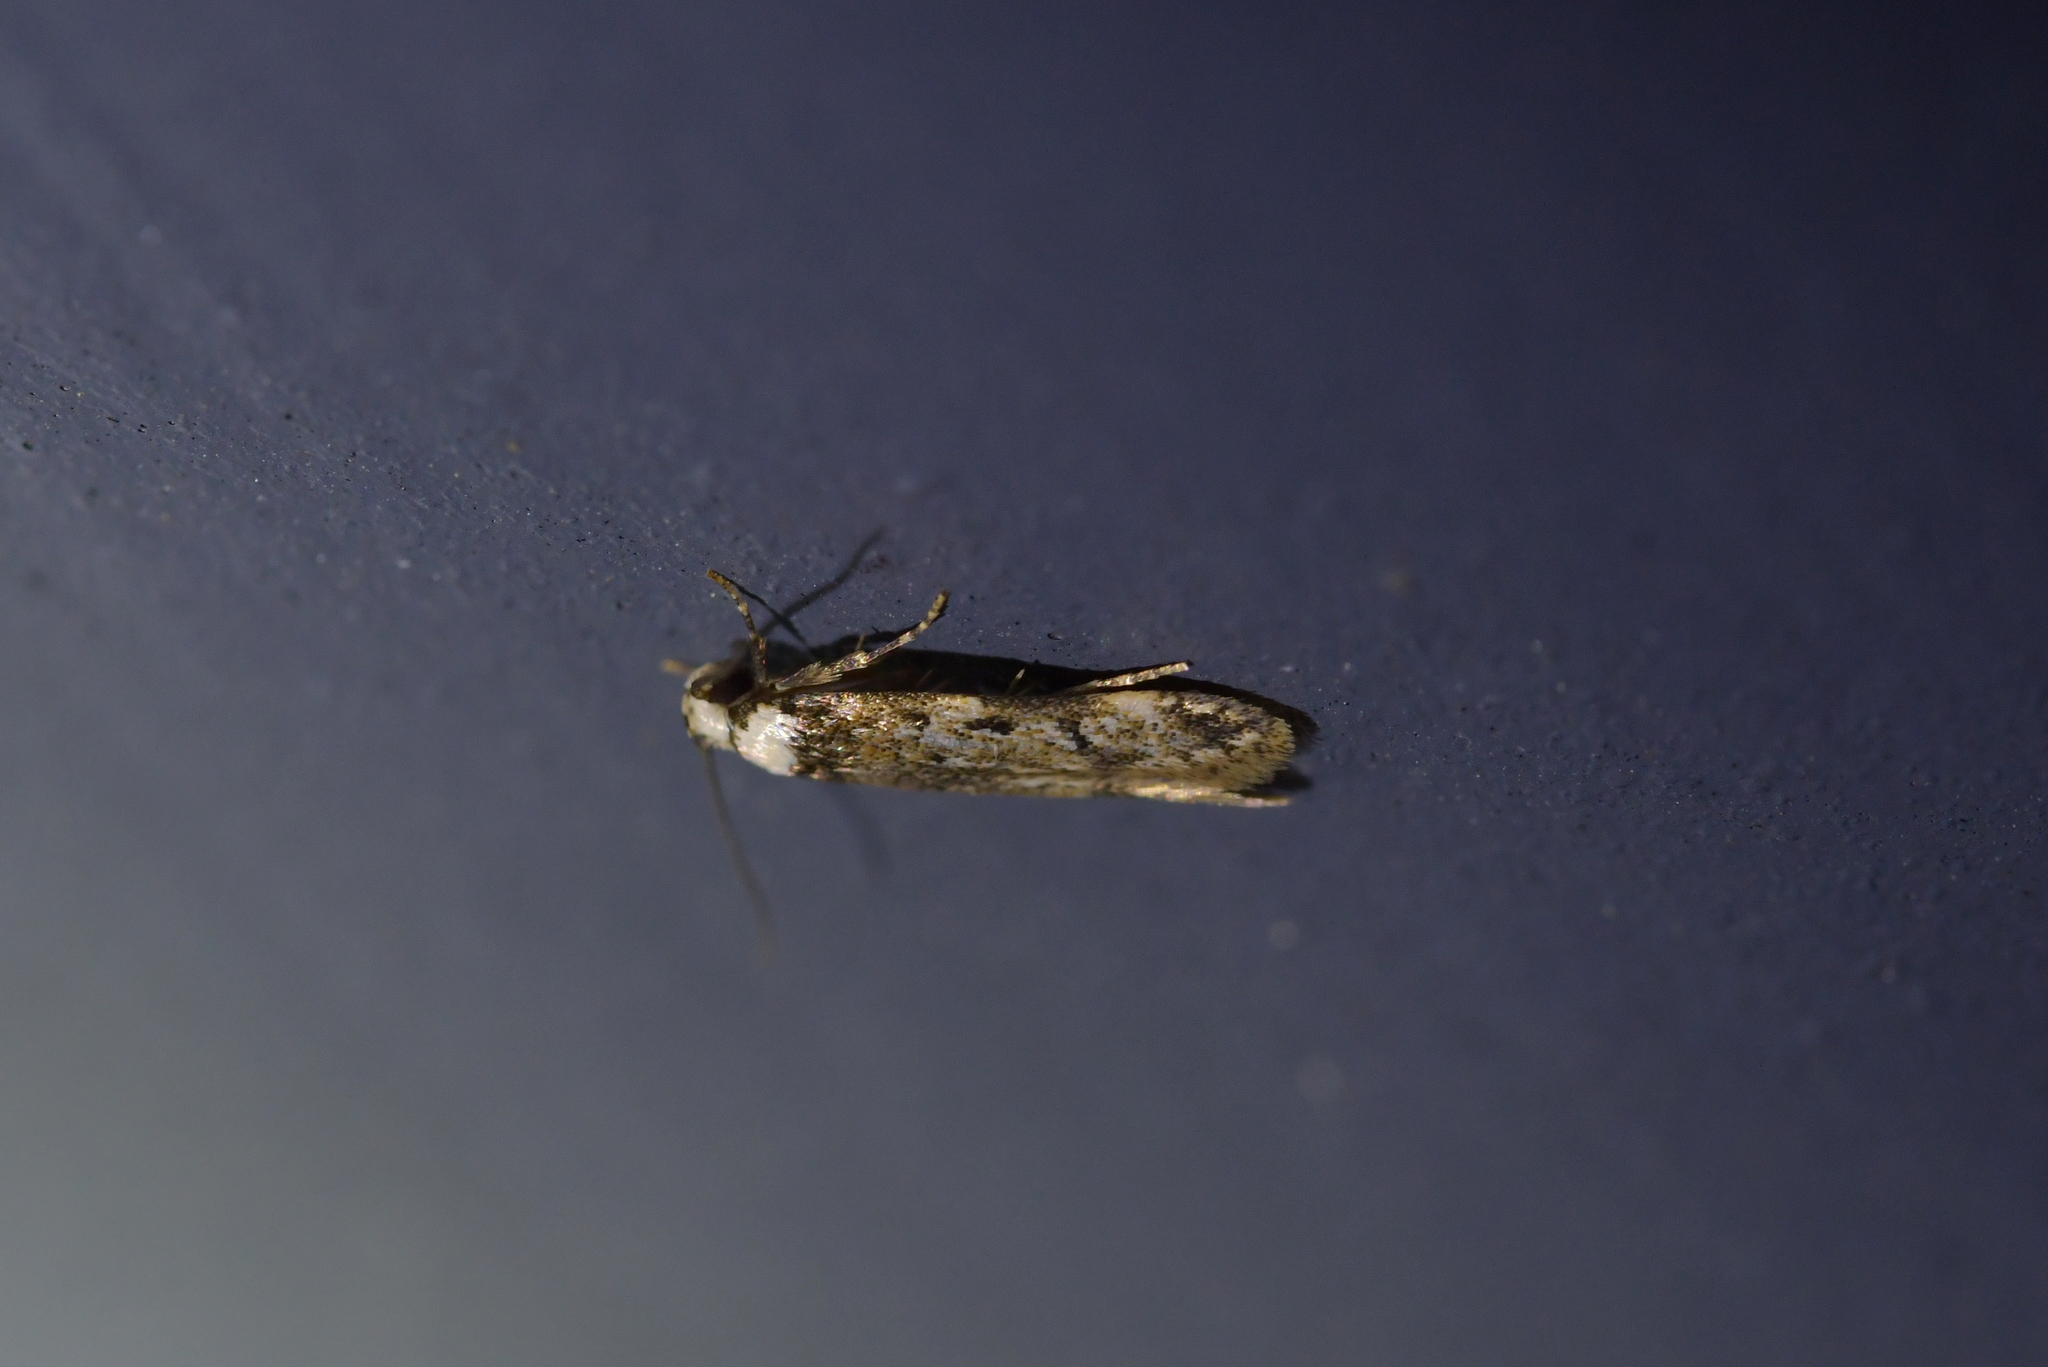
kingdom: Animalia
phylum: Arthropoda
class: Insecta
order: Lepidoptera
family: Oecophoridae
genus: Endrosis
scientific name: Endrosis sarcitrella
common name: White-shouldered house moth
